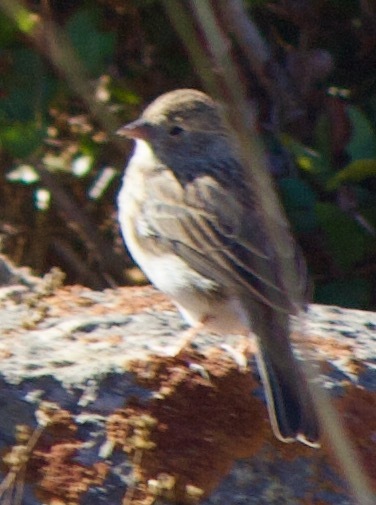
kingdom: Animalia
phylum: Chordata
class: Aves
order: Passeriformes
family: Thraupidae
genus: Porphyrospiza
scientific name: Porphyrospiza alaudina
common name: Band-tailed sierra finch
